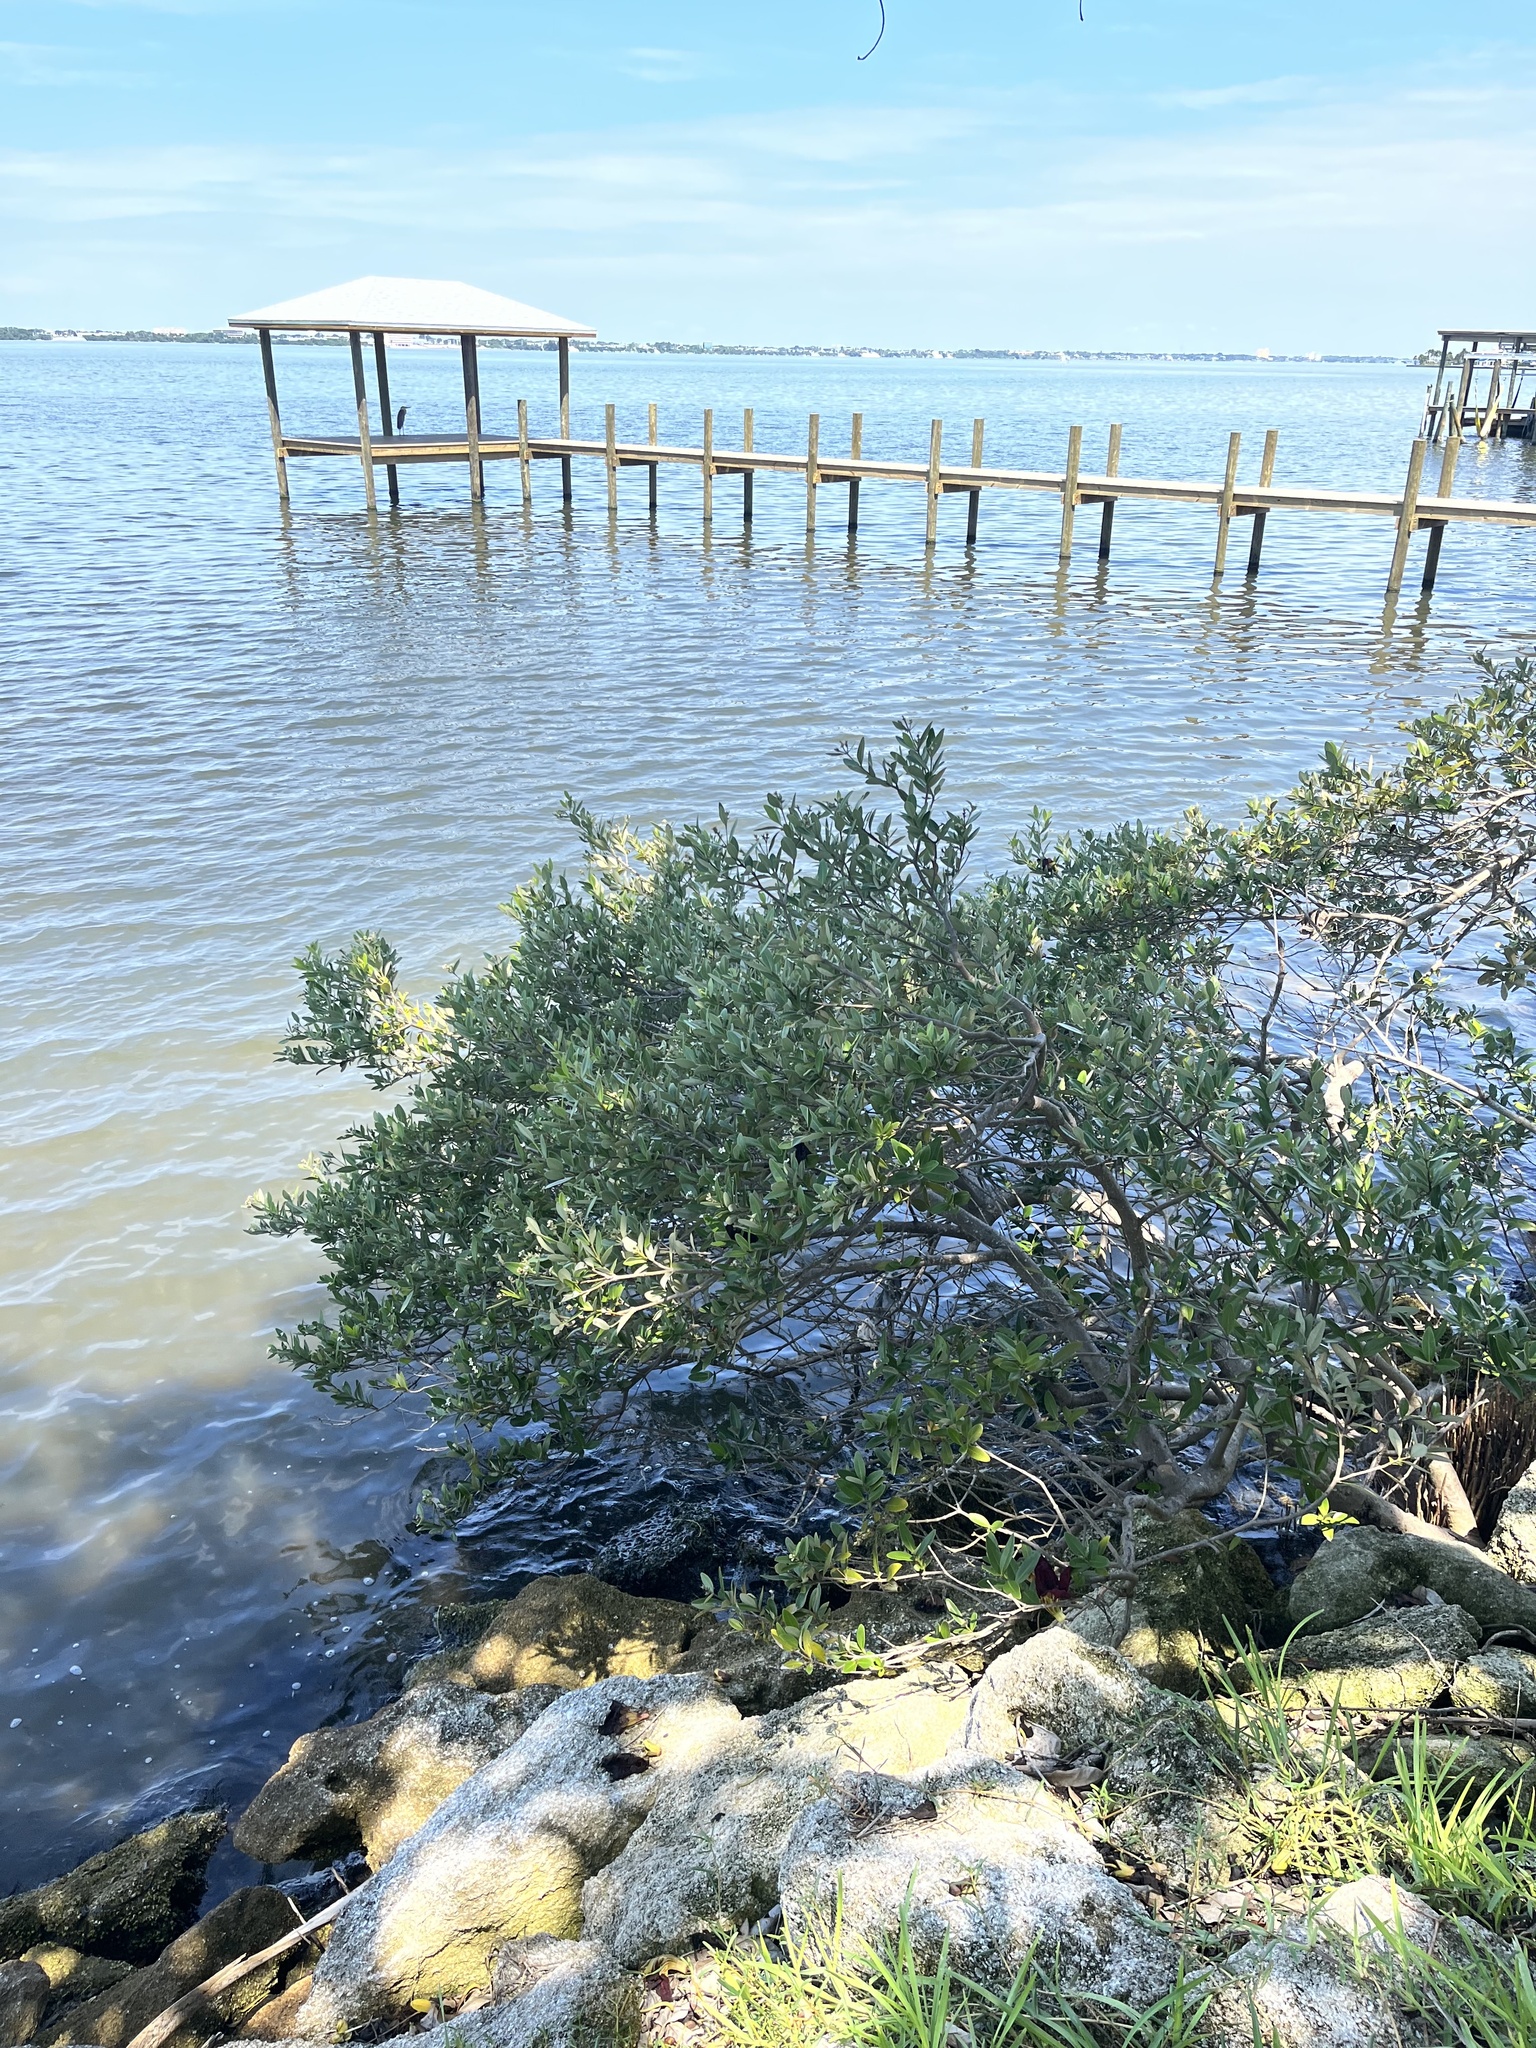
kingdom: Plantae
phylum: Tracheophyta
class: Magnoliopsida
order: Lamiales
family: Acanthaceae
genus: Avicennia
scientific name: Avicennia germinans
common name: Black mangrove
